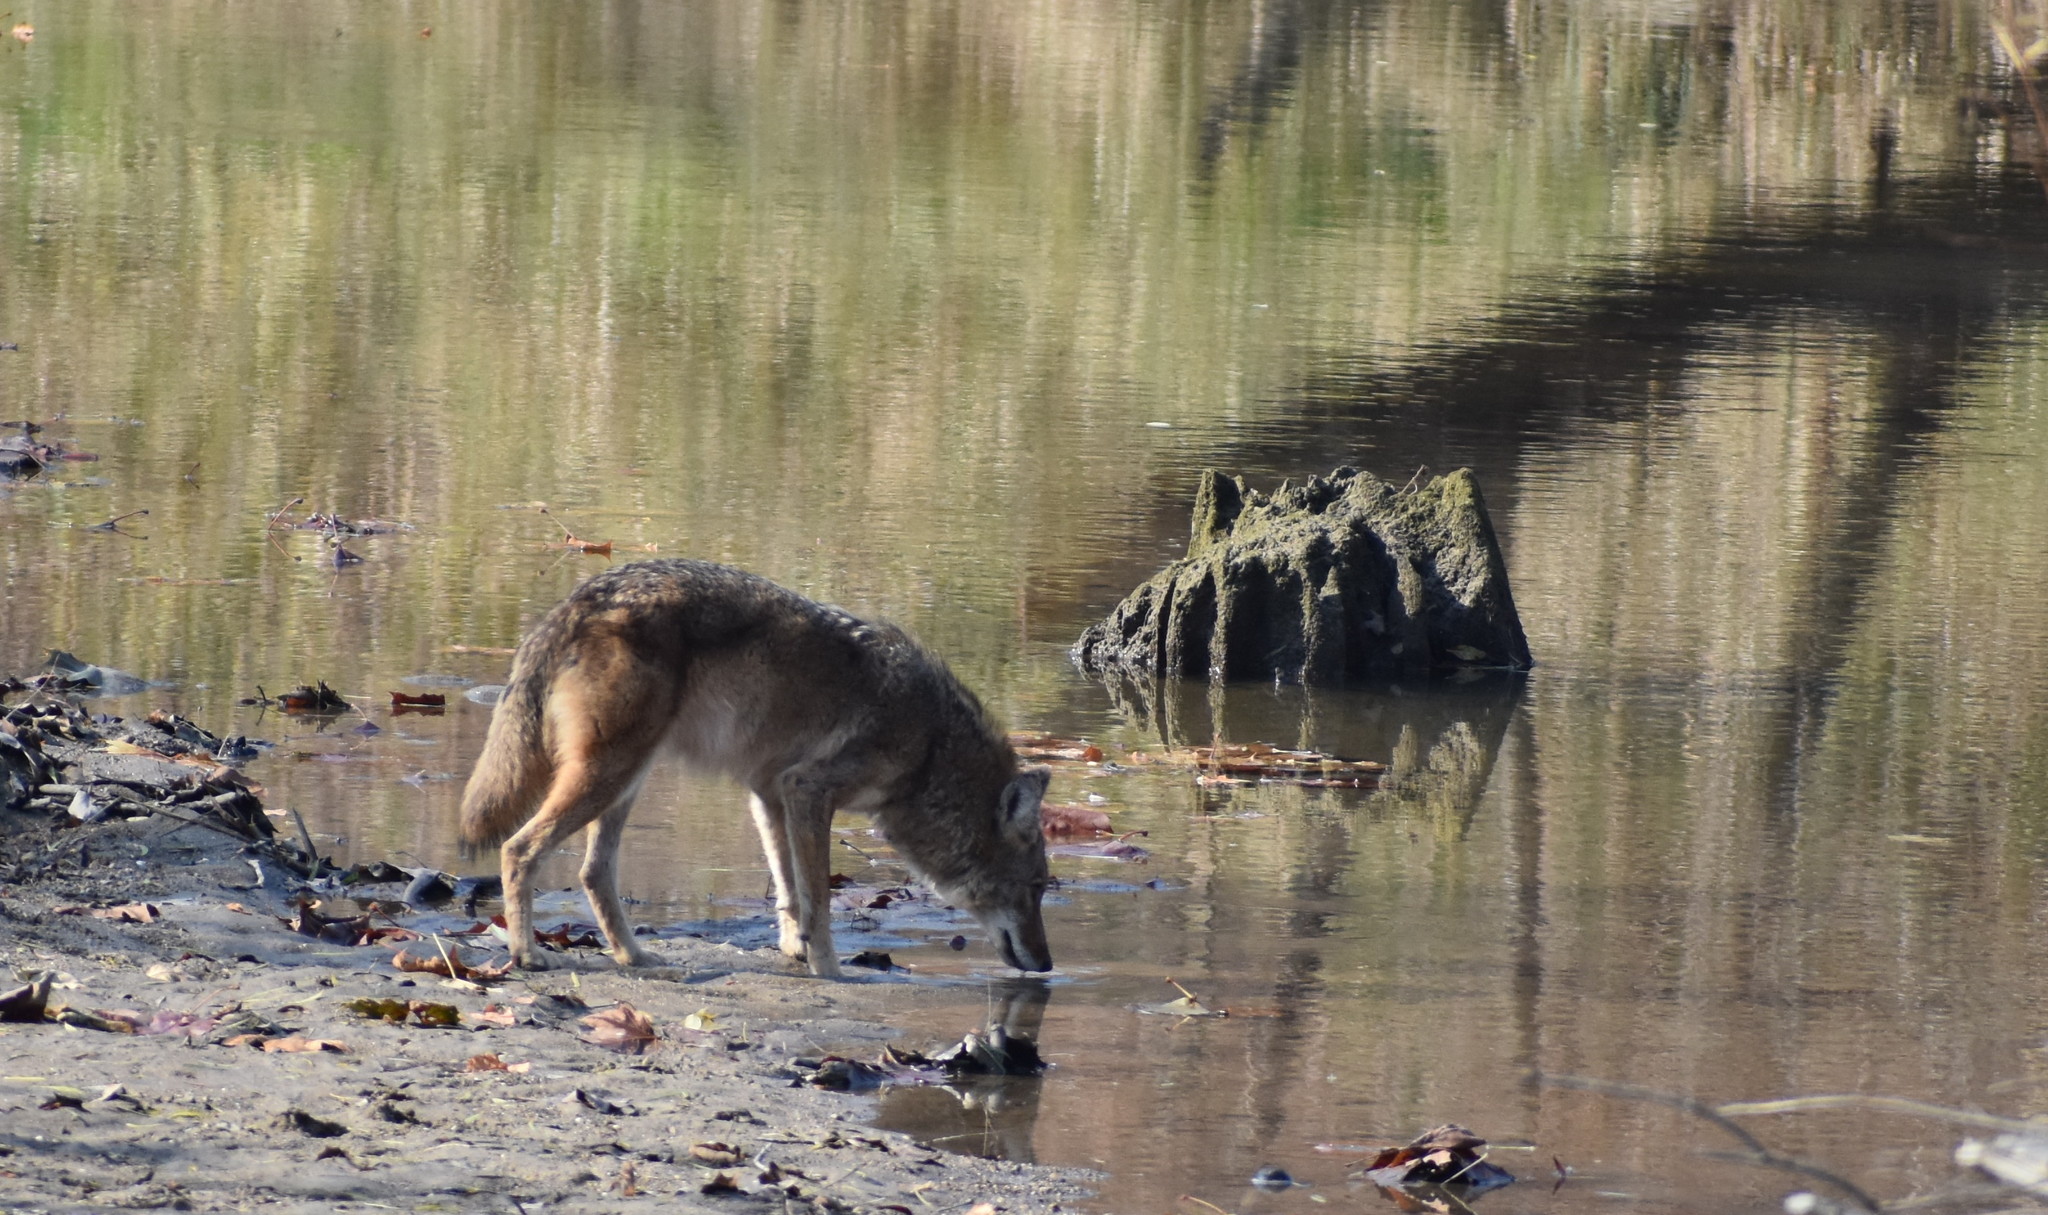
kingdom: Animalia
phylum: Chordata
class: Mammalia
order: Carnivora
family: Canidae
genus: Canis
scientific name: Canis latrans
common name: Coyote
